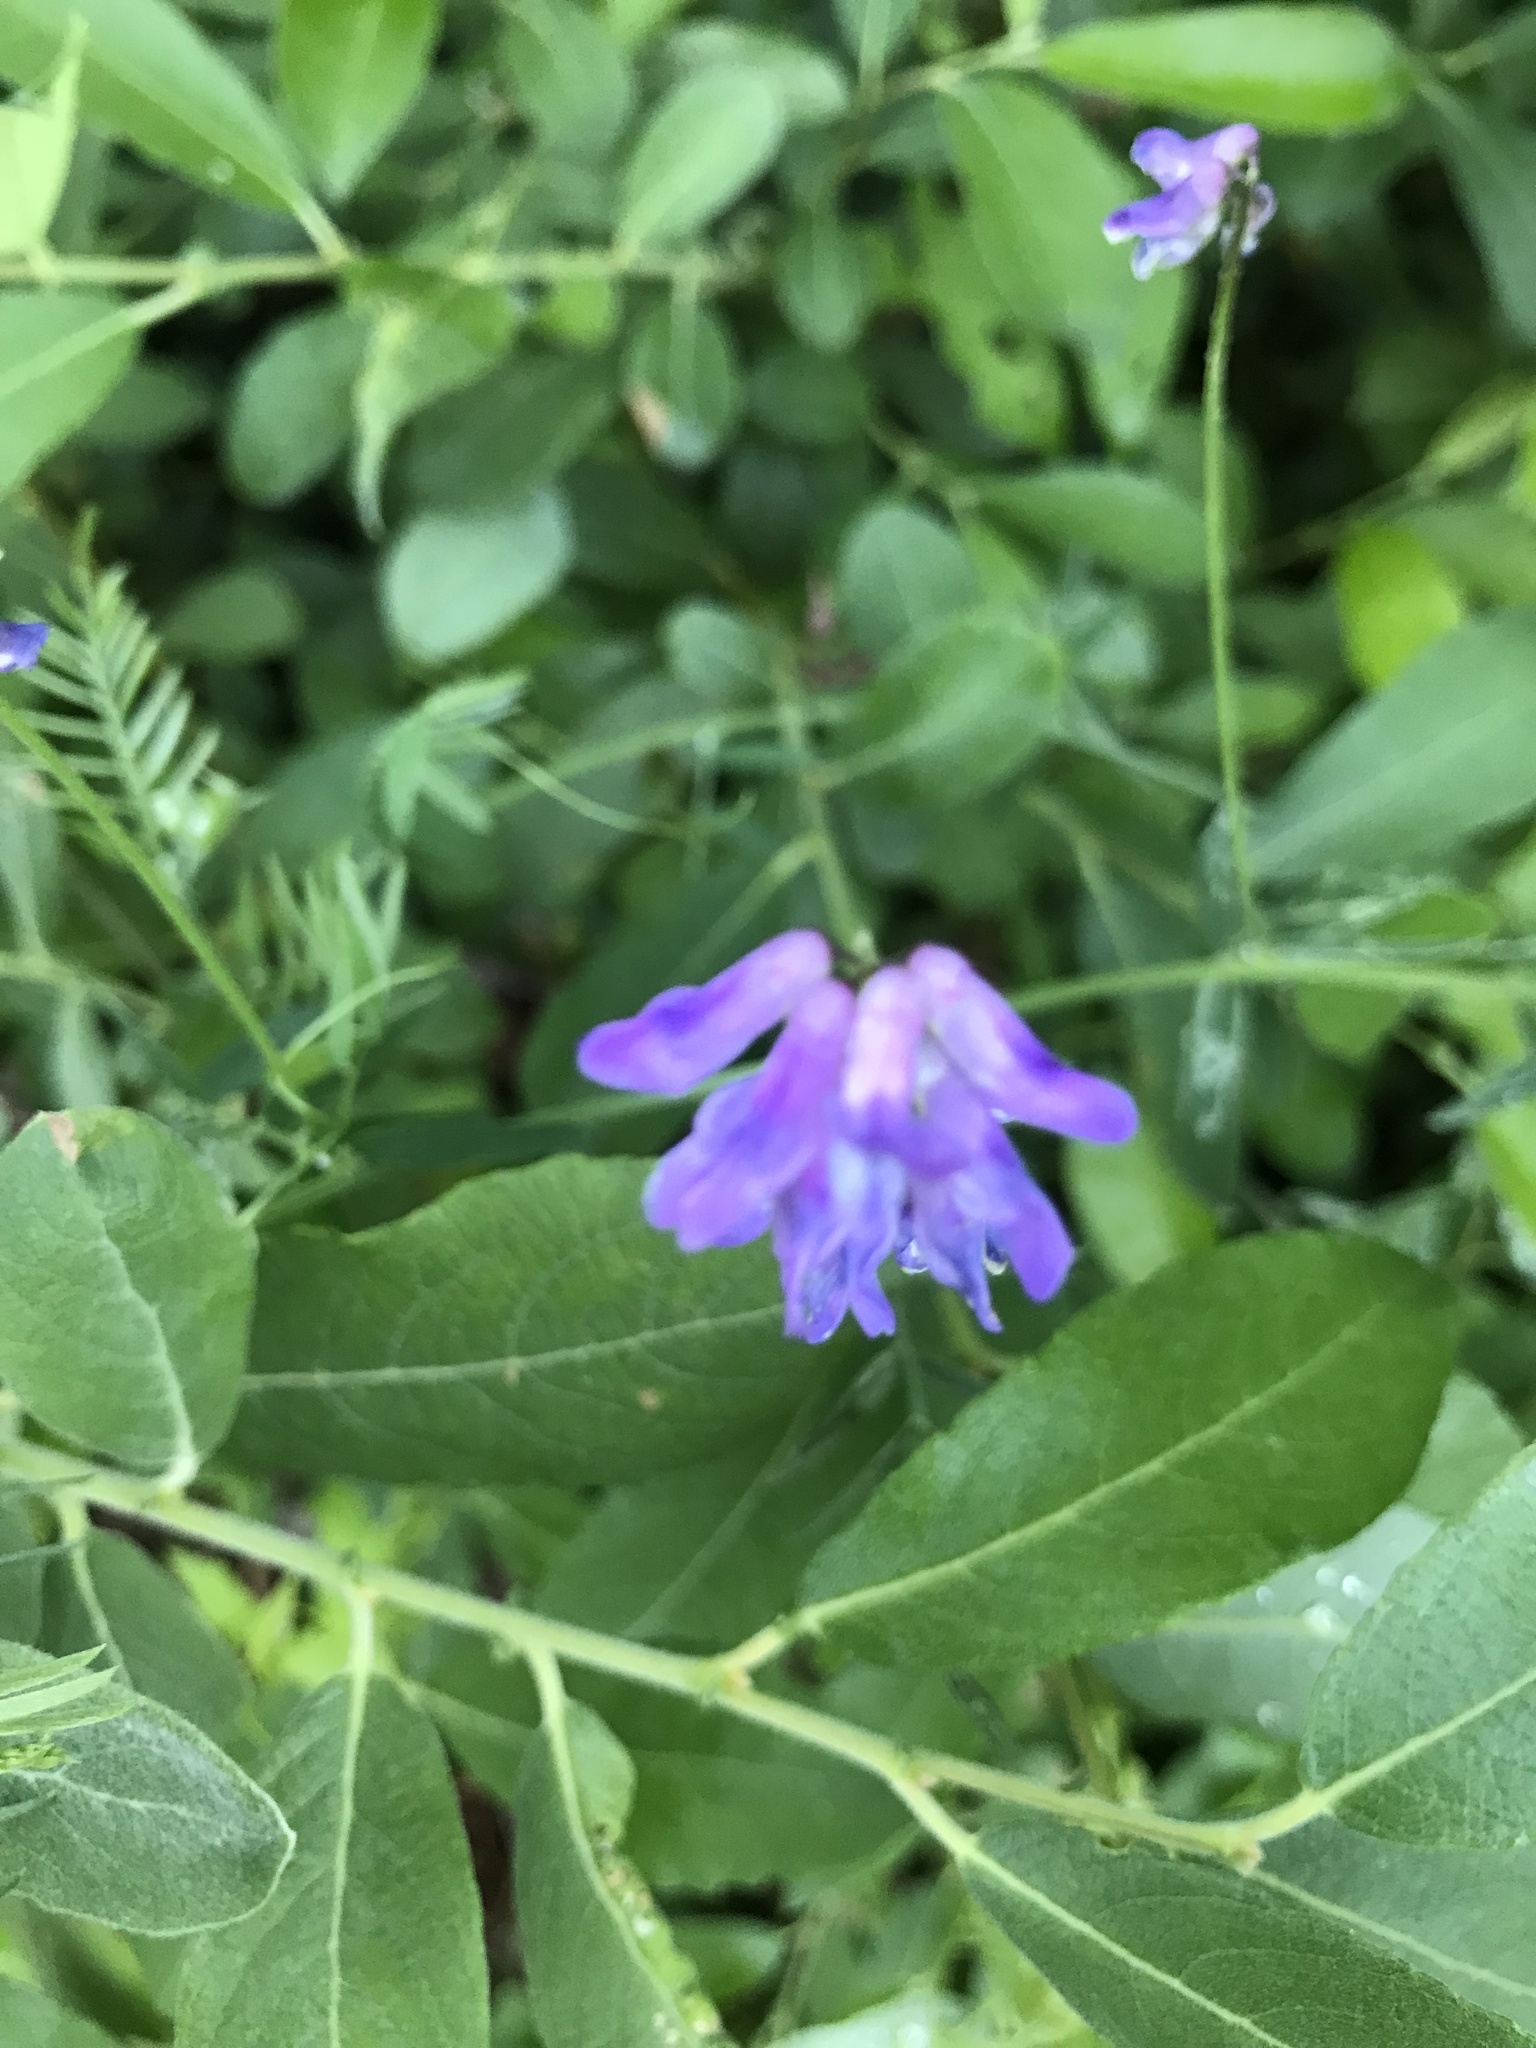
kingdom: Plantae
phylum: Tracheophyta
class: Magnoliopsida
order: Fabales
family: Fabaceae
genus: Vicia
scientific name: Vicia cracca
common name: Bird vetch
